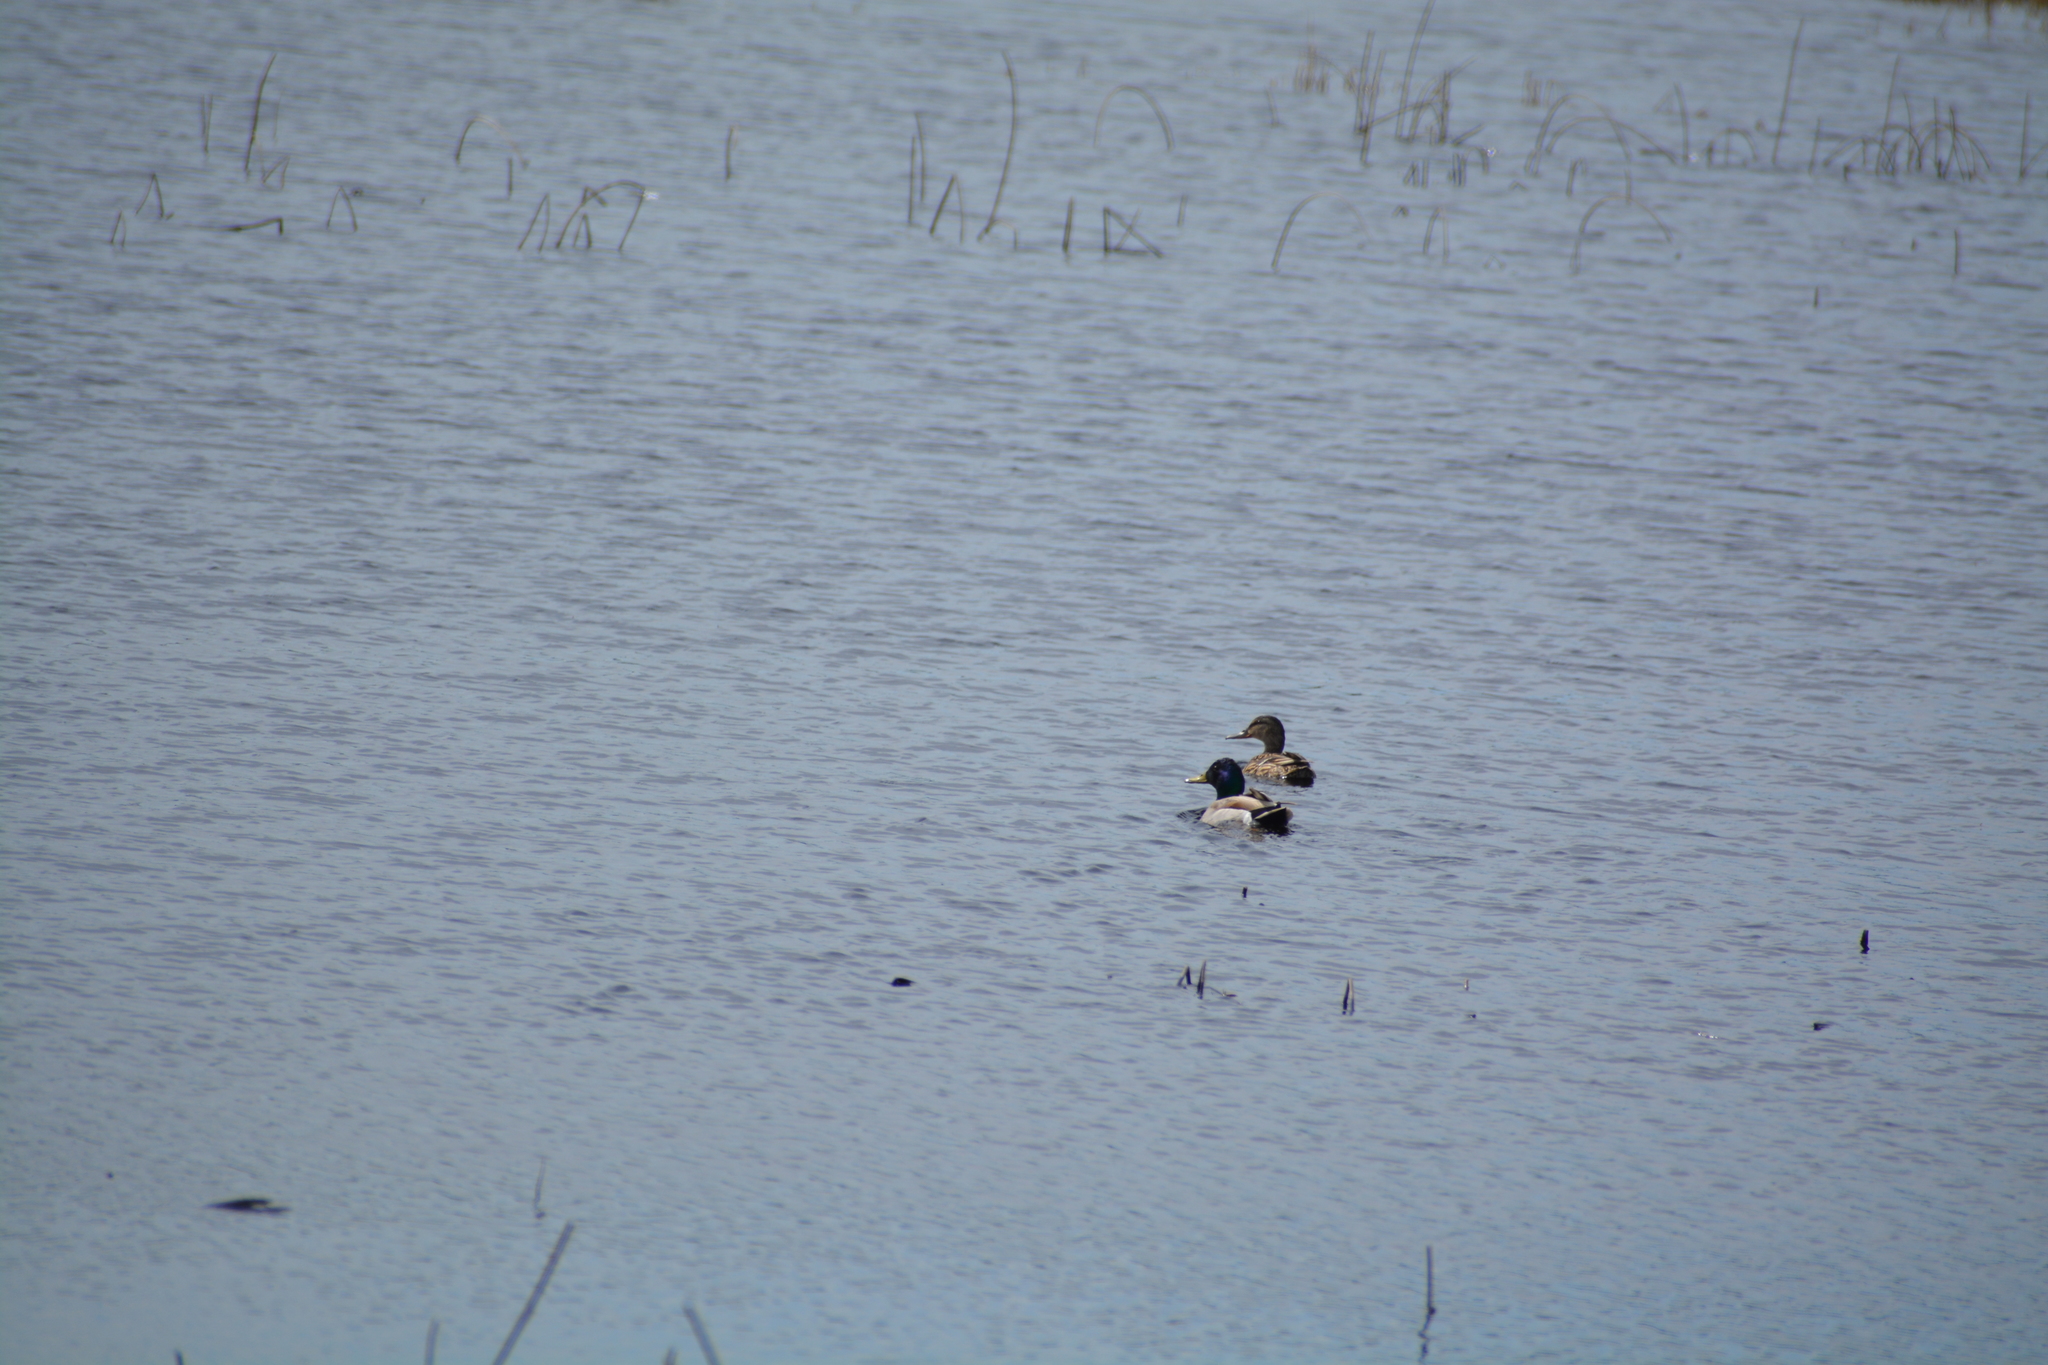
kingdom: Animalia
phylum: Chordata
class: Aves
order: Anseriformes
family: Anatidae
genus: Anas
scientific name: Anas platyrhynchos
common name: Mallard
